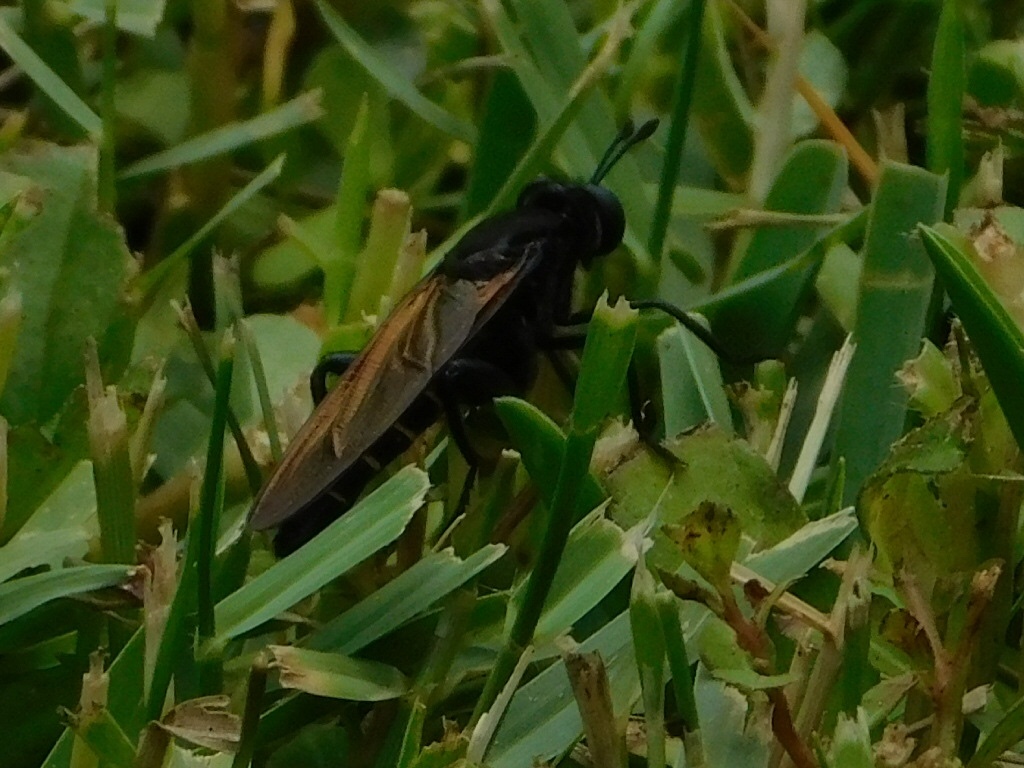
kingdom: Animalia
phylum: Arthropoda
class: Insecta
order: Diptera
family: Mydidae
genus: Mydas
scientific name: Mydas maculiventris
